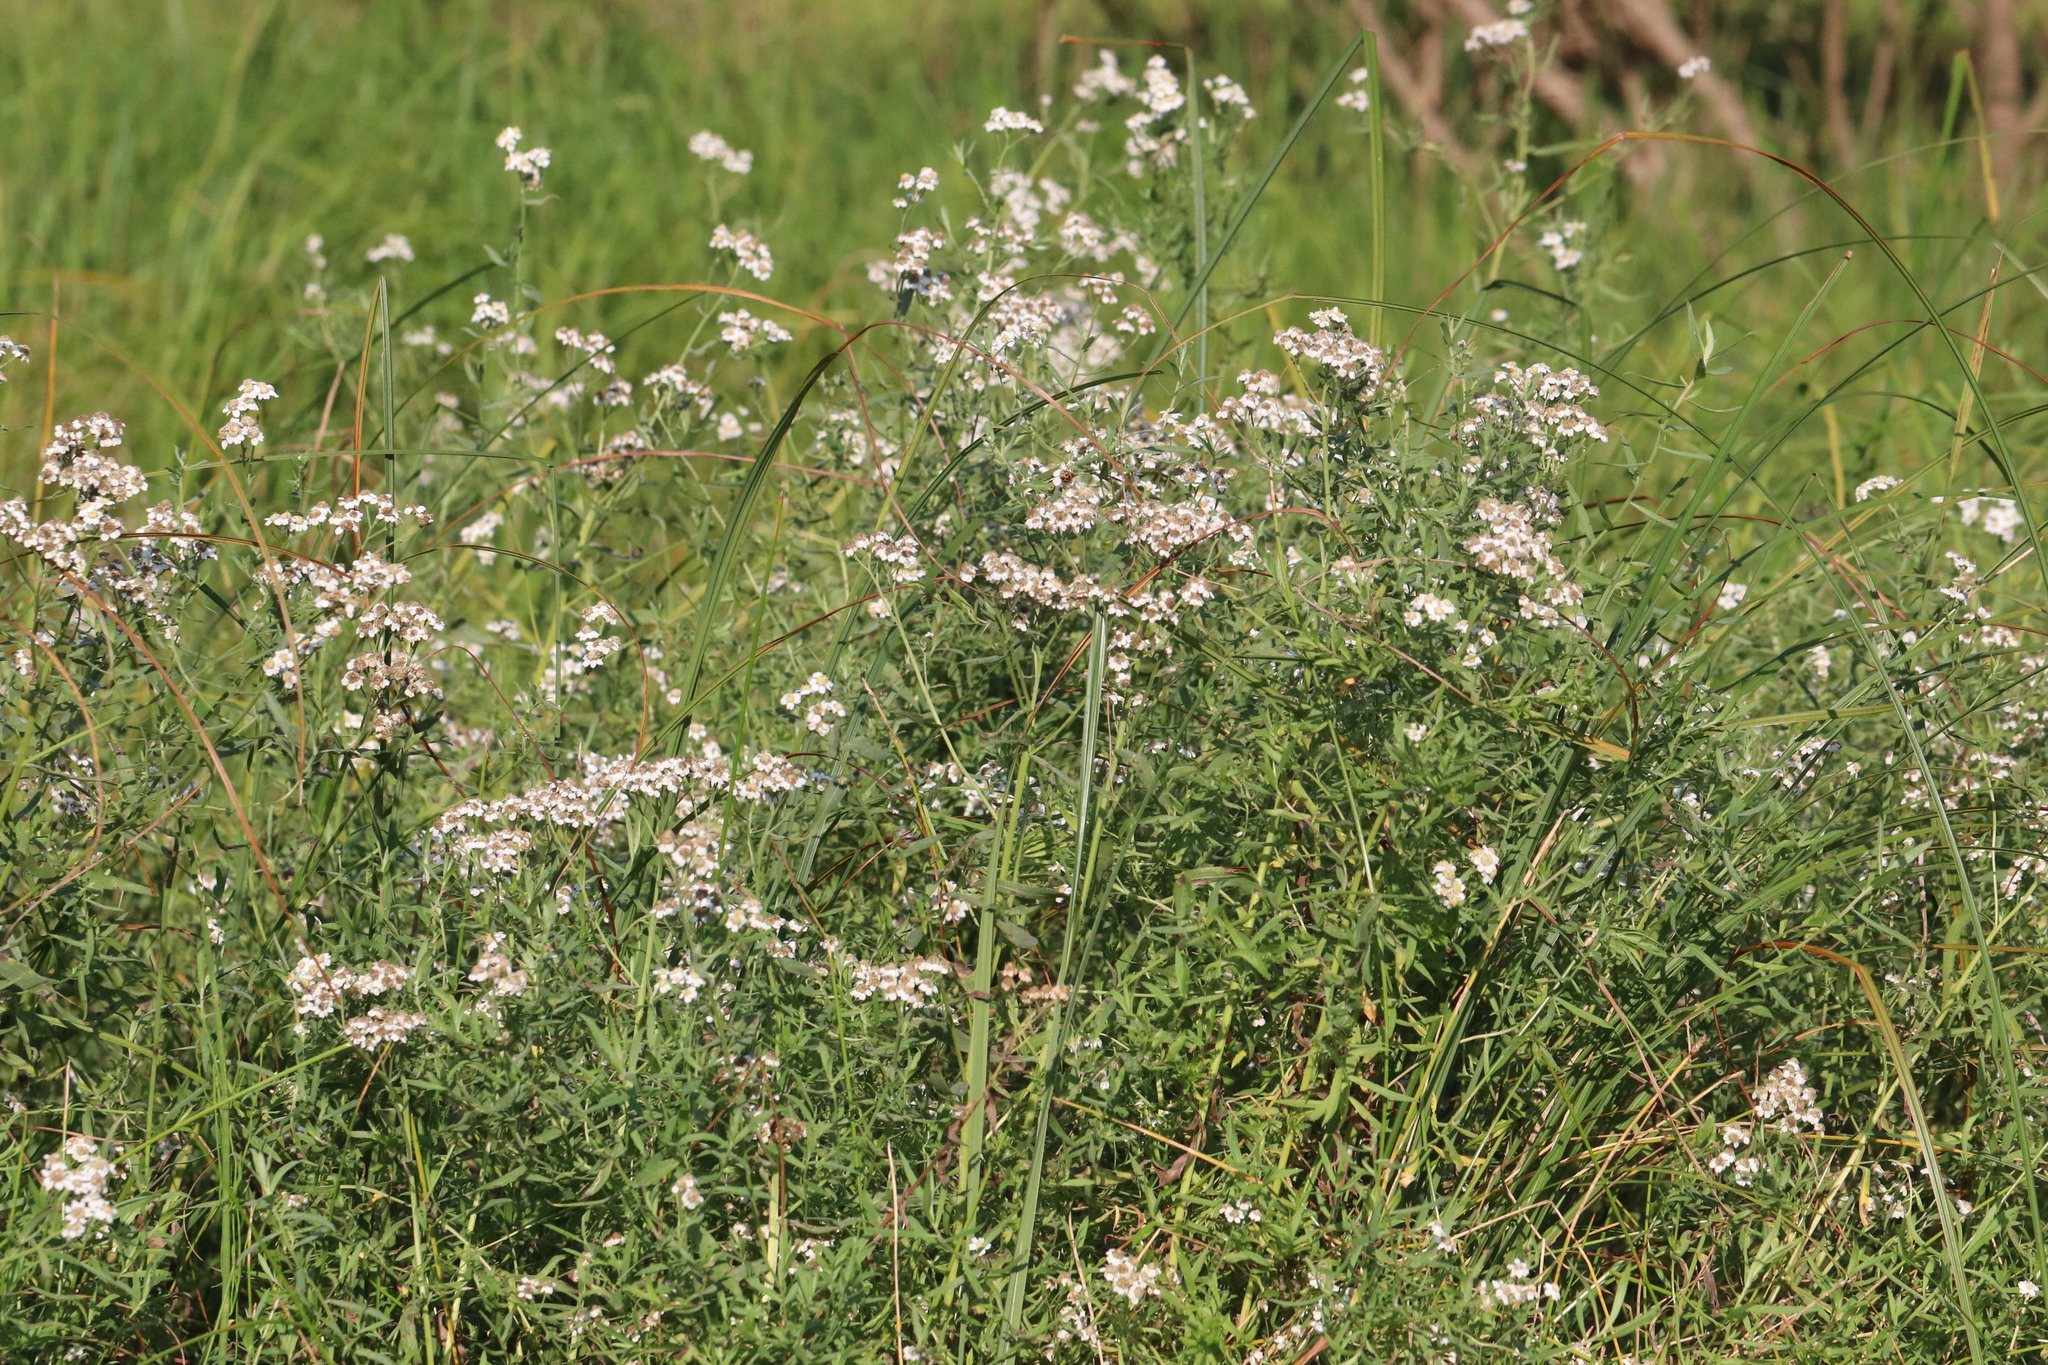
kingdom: Plantae
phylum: Tracheophyta
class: Magnoliopsida
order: Asterales
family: Asteraceae
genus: Achillea
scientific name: Achillea salicifolia
